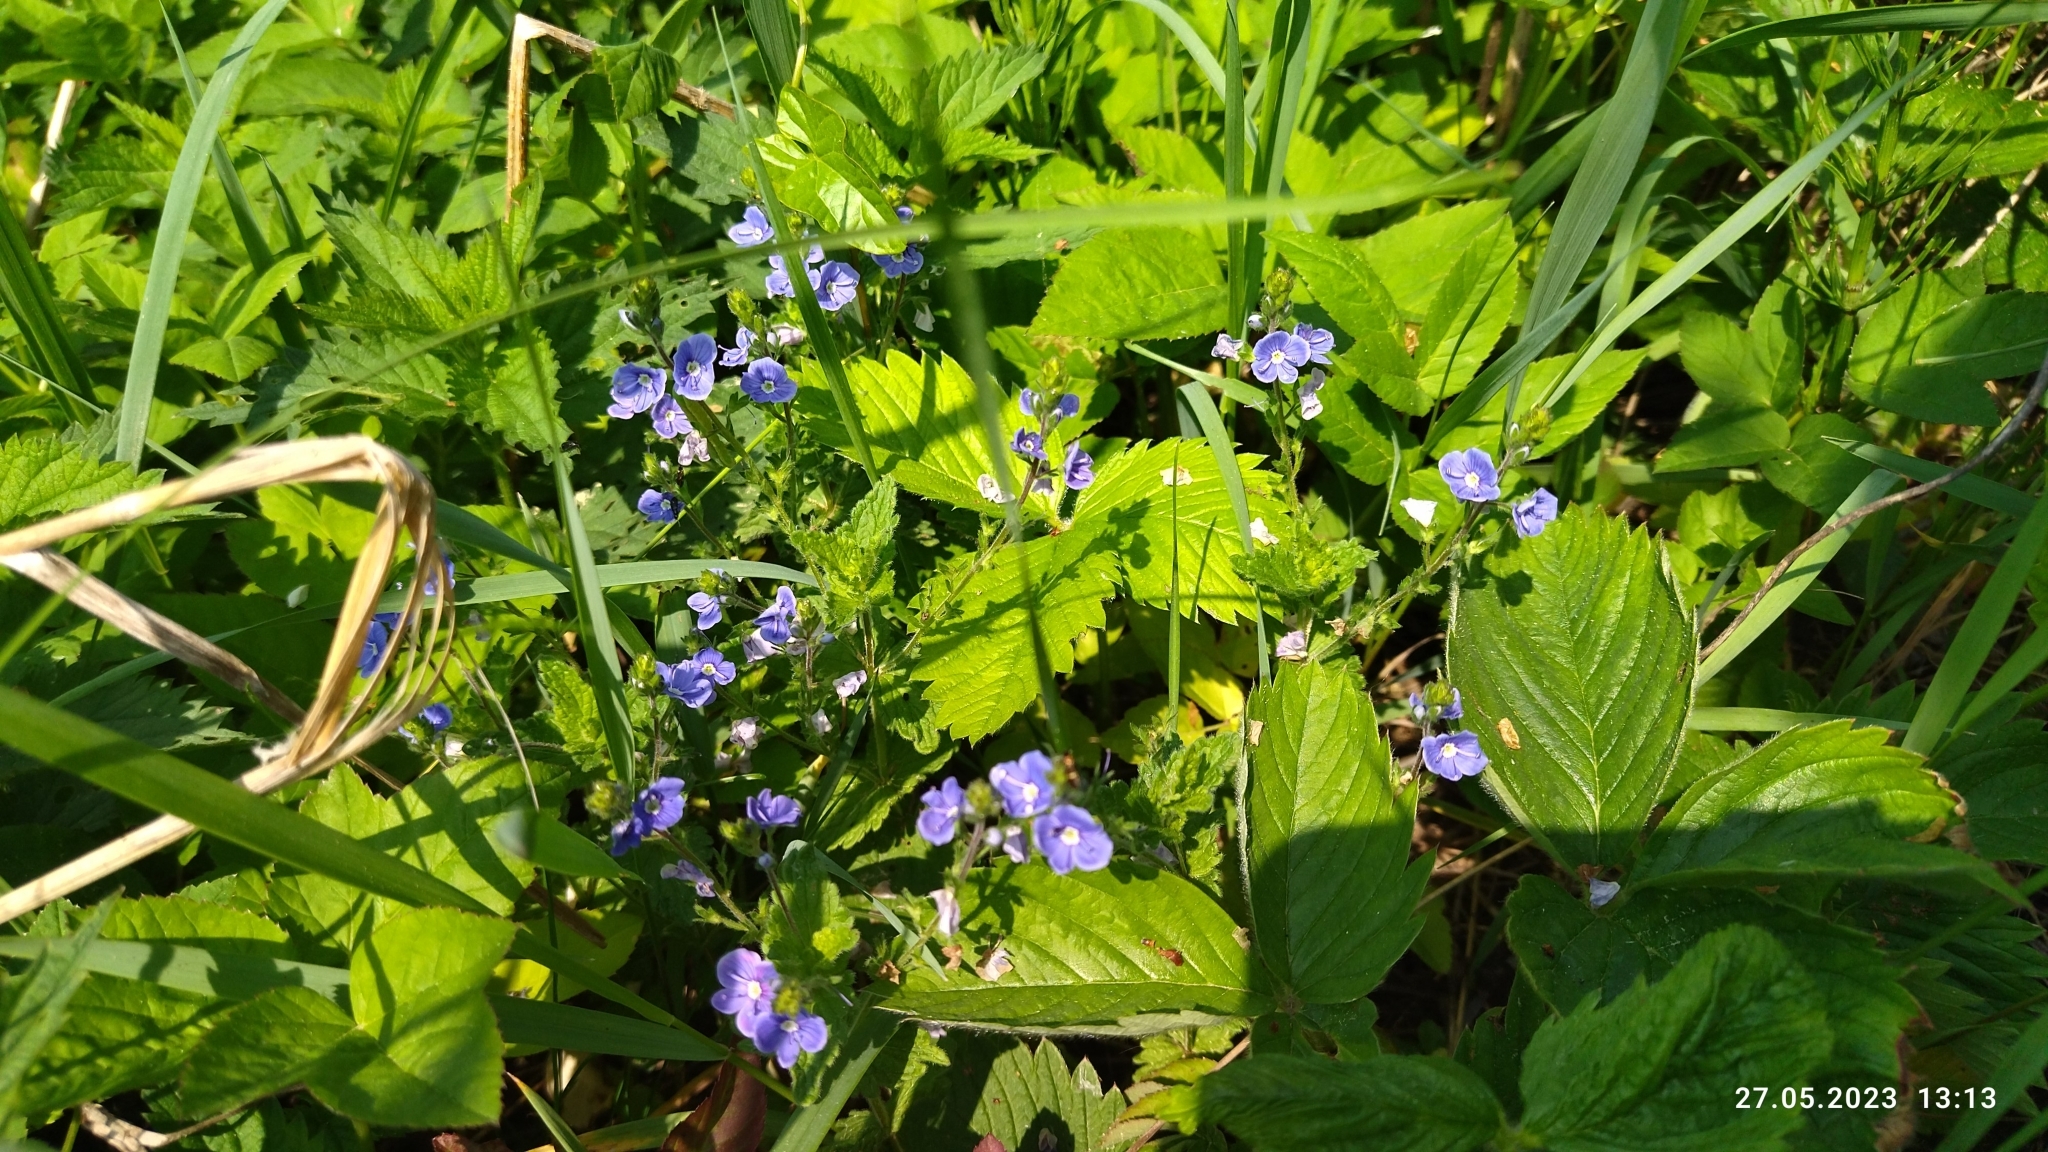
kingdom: Plantae
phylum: Tracheophyta
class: Magnoliopsida
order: Lamiales
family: Plantaginaceae
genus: Veronica
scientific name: Veronica chamaedrys
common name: Germander speedwell
